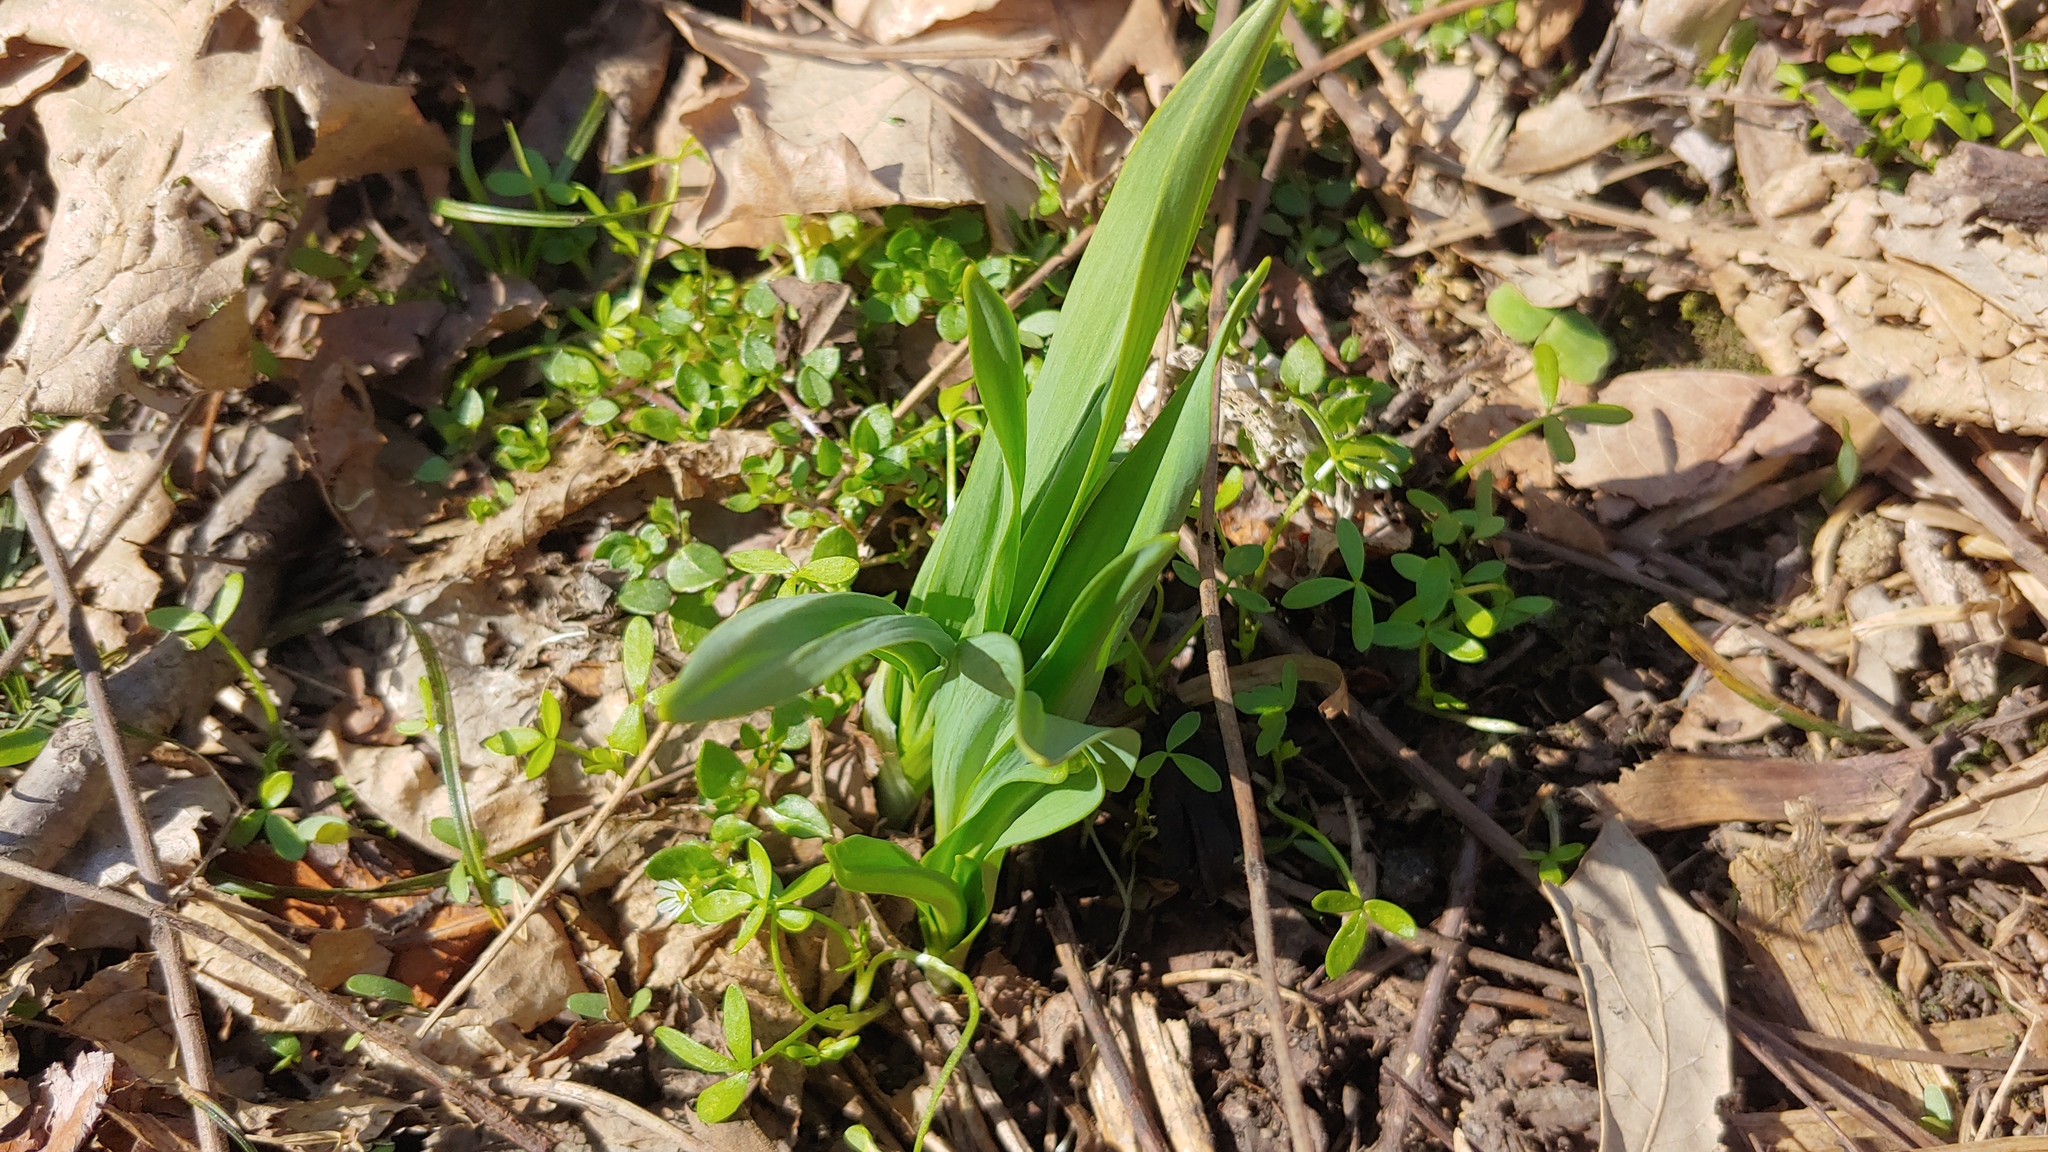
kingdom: Plantae
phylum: Tracheophyta
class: Liliopsida
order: Asparagales
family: Amaryllidaceae
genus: Allium
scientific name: Allium tricoccum
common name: Ramp
